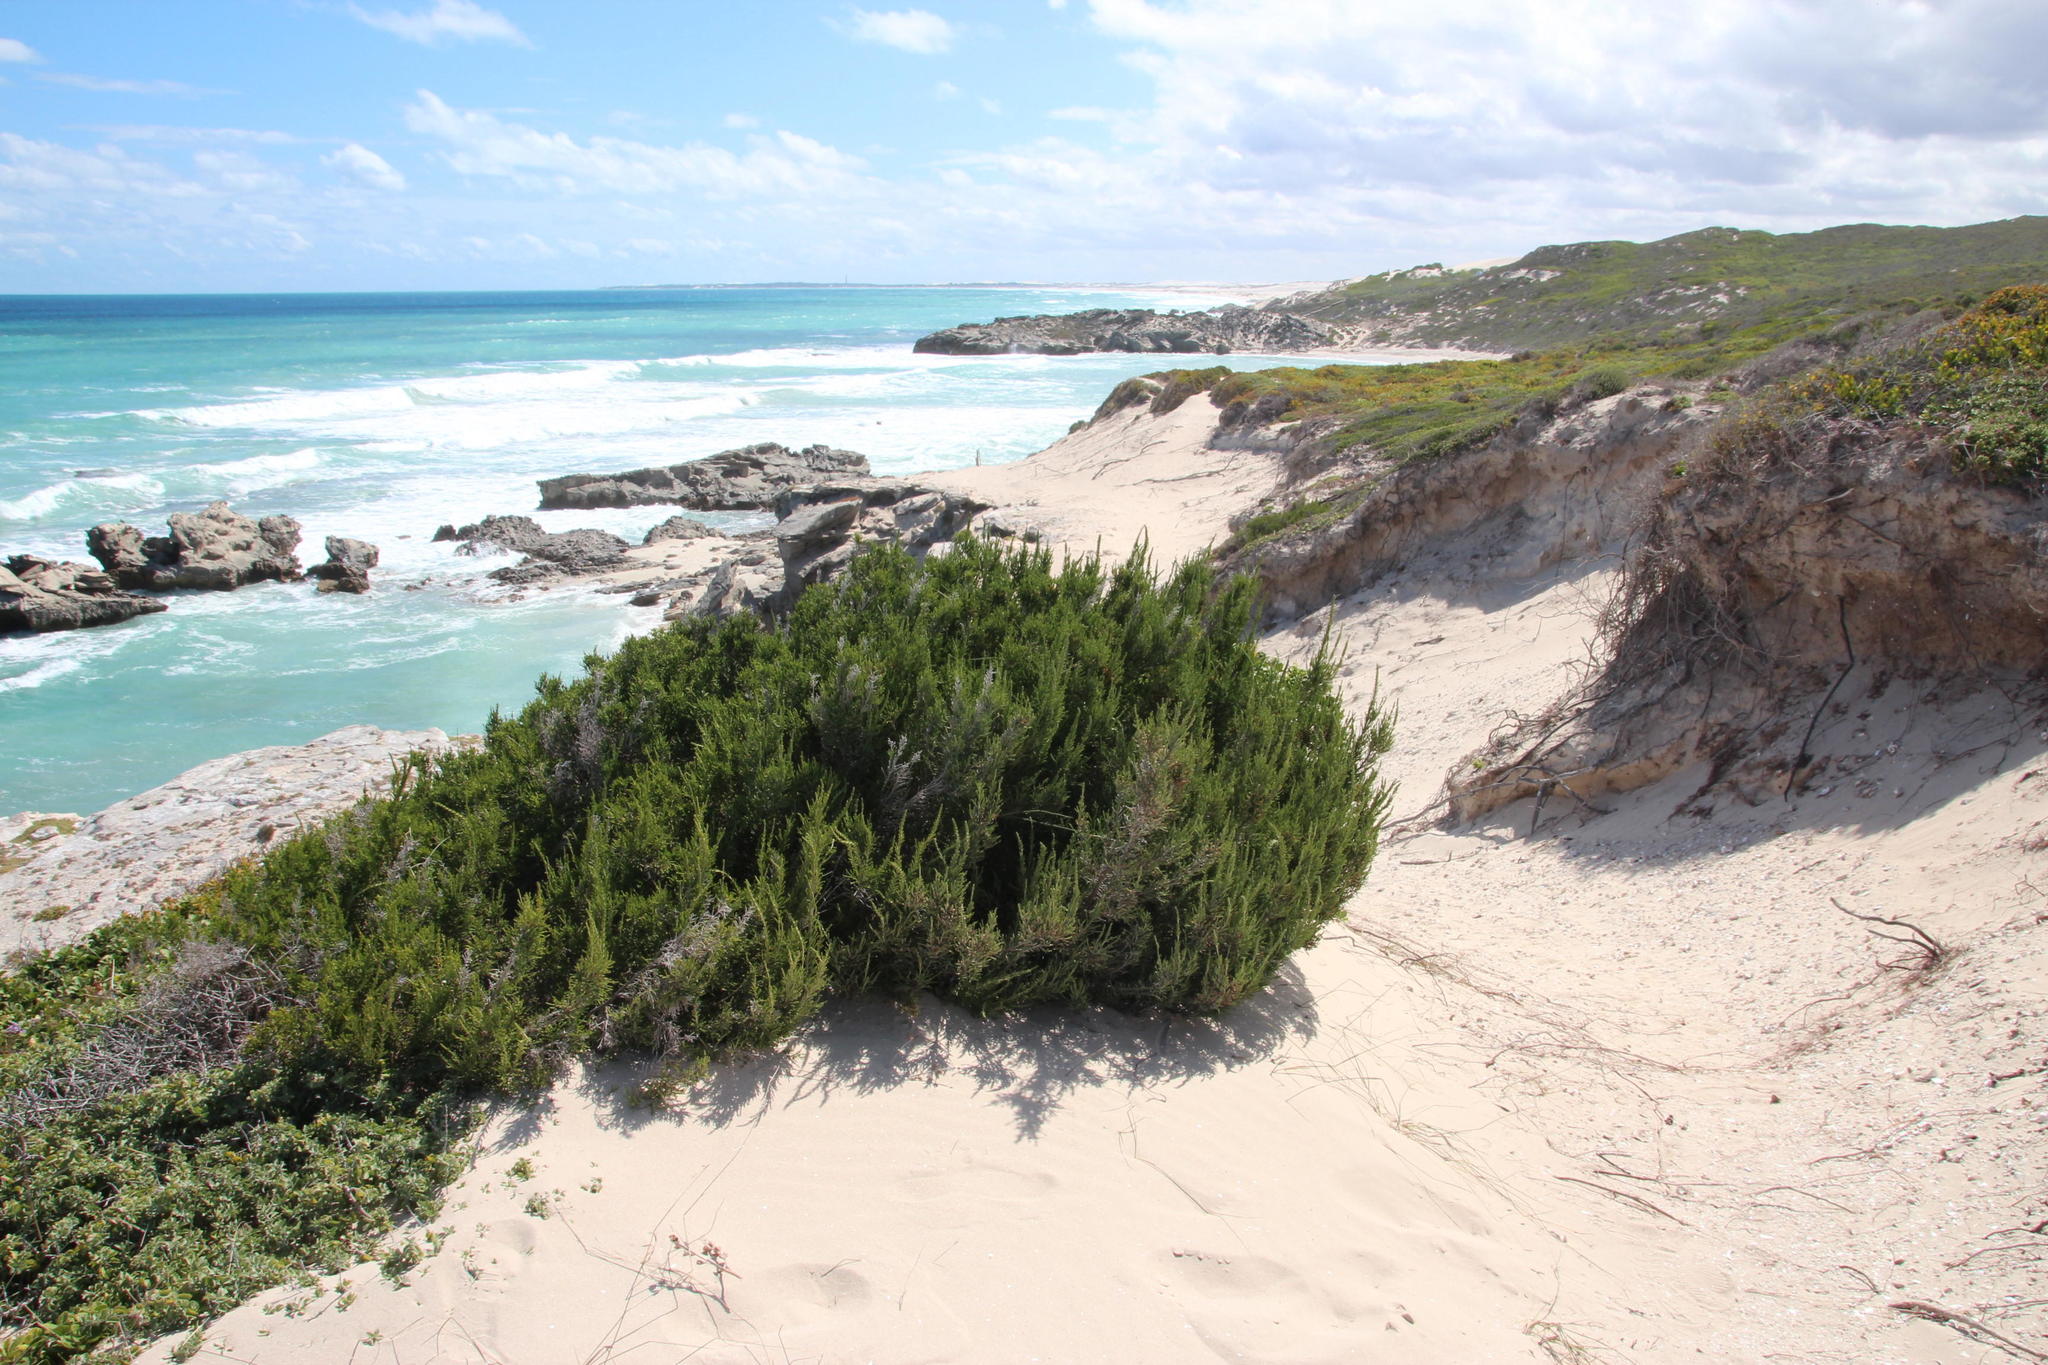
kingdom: Plantae
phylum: Tracheophyta
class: Magnoliopsida
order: Malvales
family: Thymelaeaceae
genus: Passerina
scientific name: Passerina rigida
